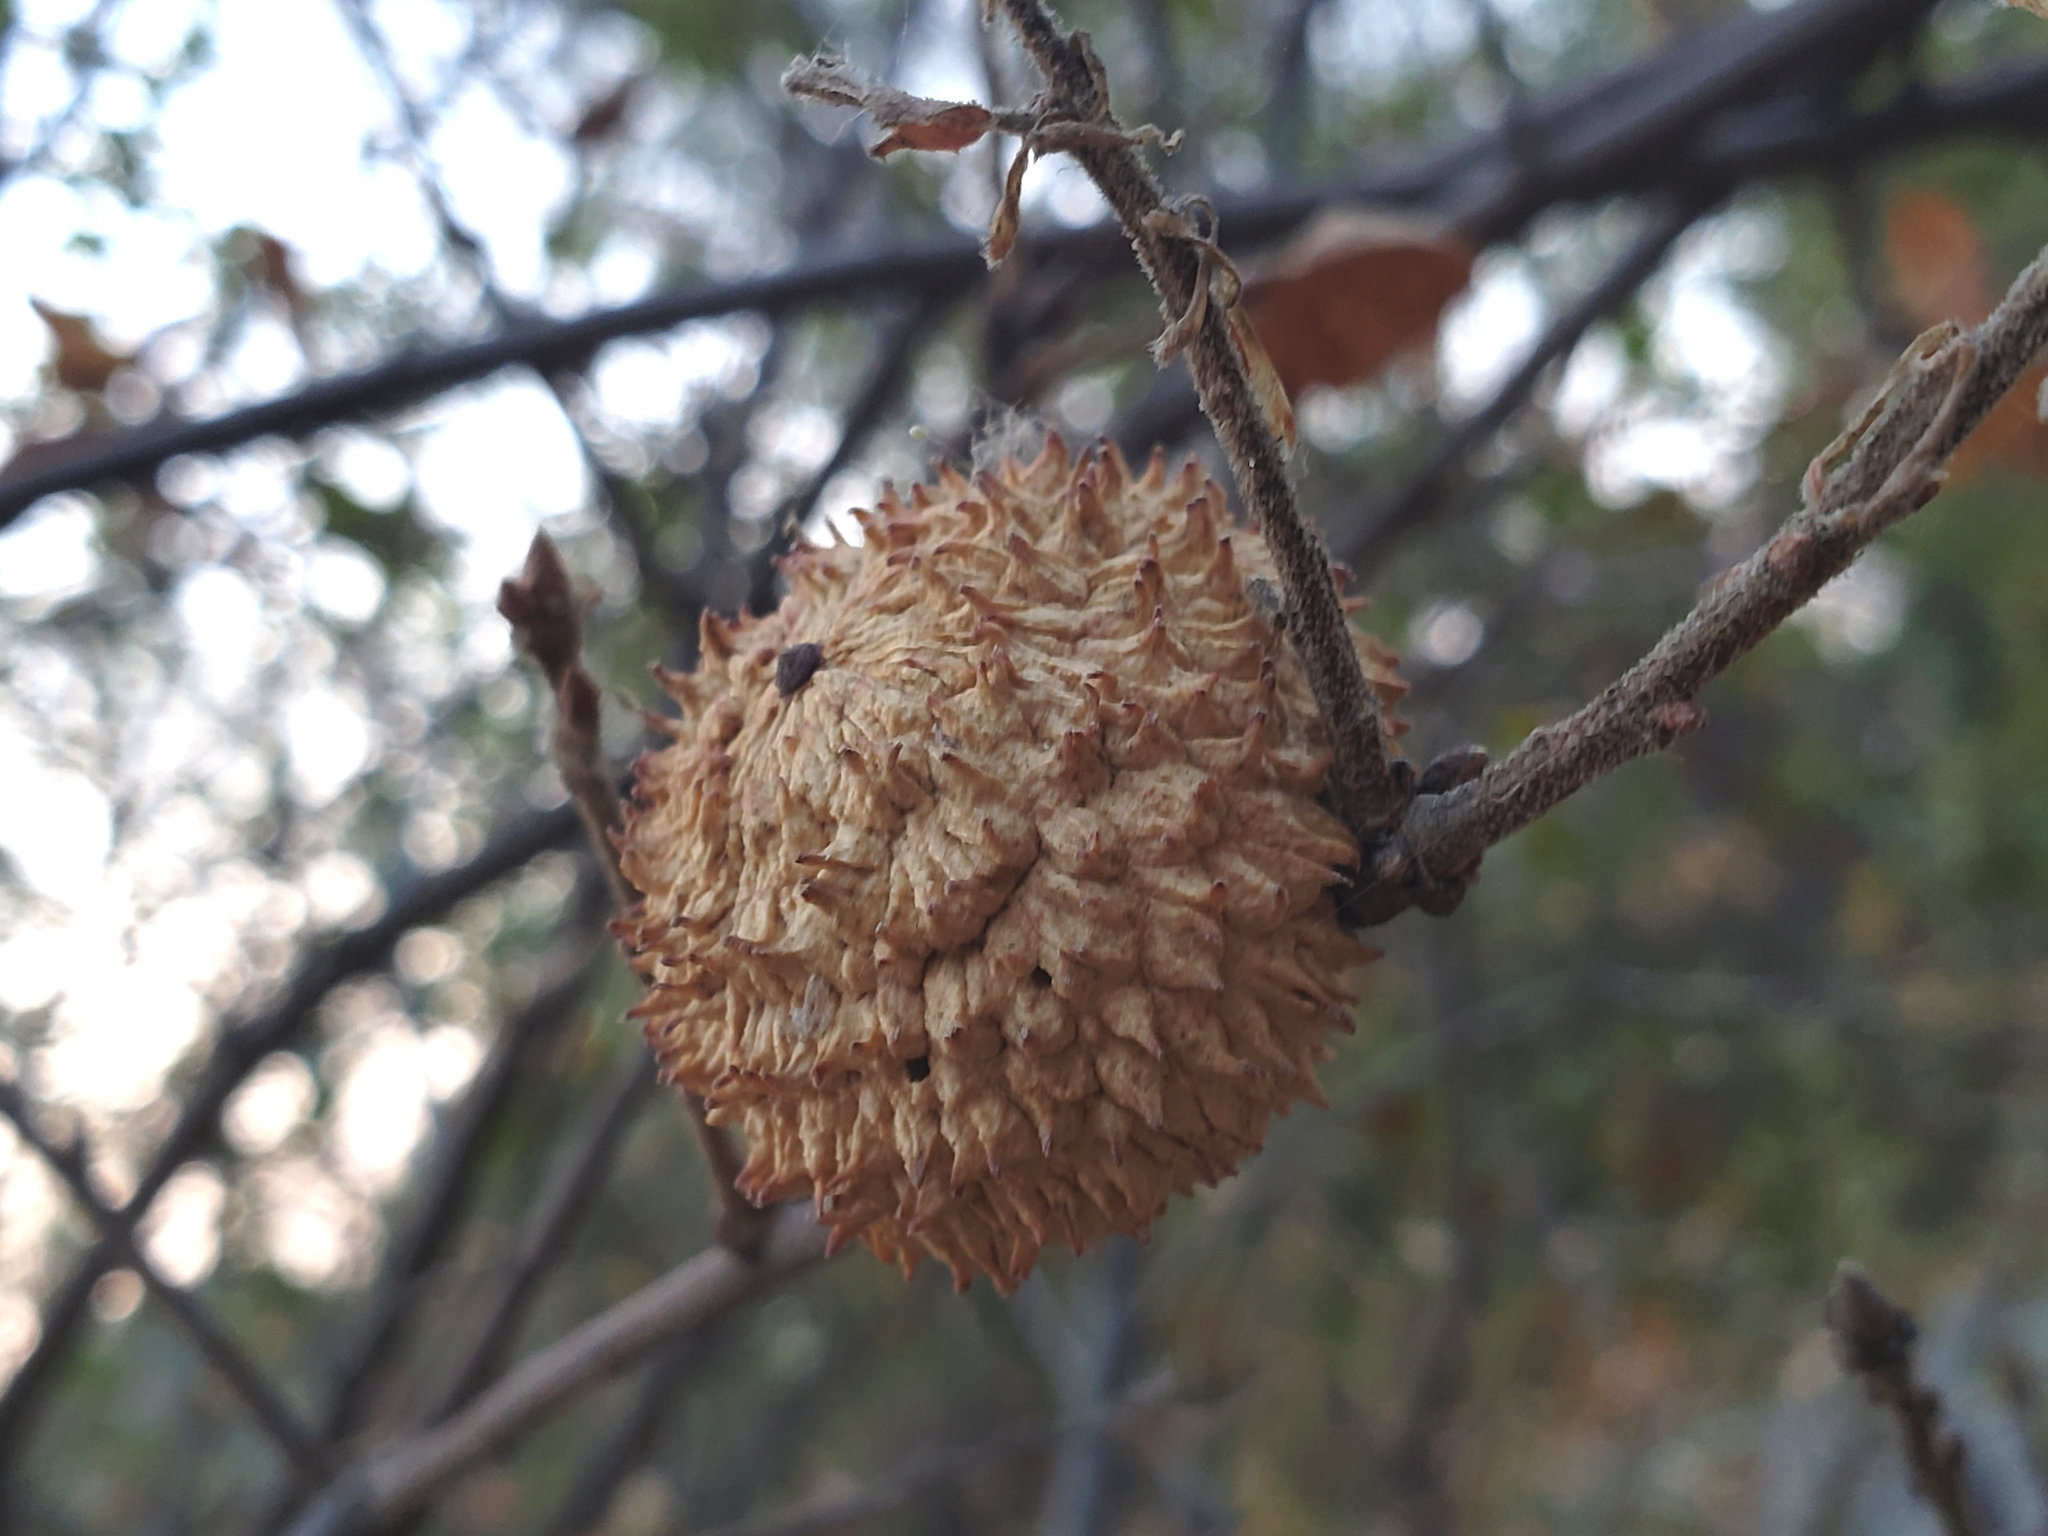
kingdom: Animalia
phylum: Arthropoda
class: Insecta
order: Hymenoptera
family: Cynipidae
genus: Amphibolips
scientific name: Amphibolips quercuspomiformis
